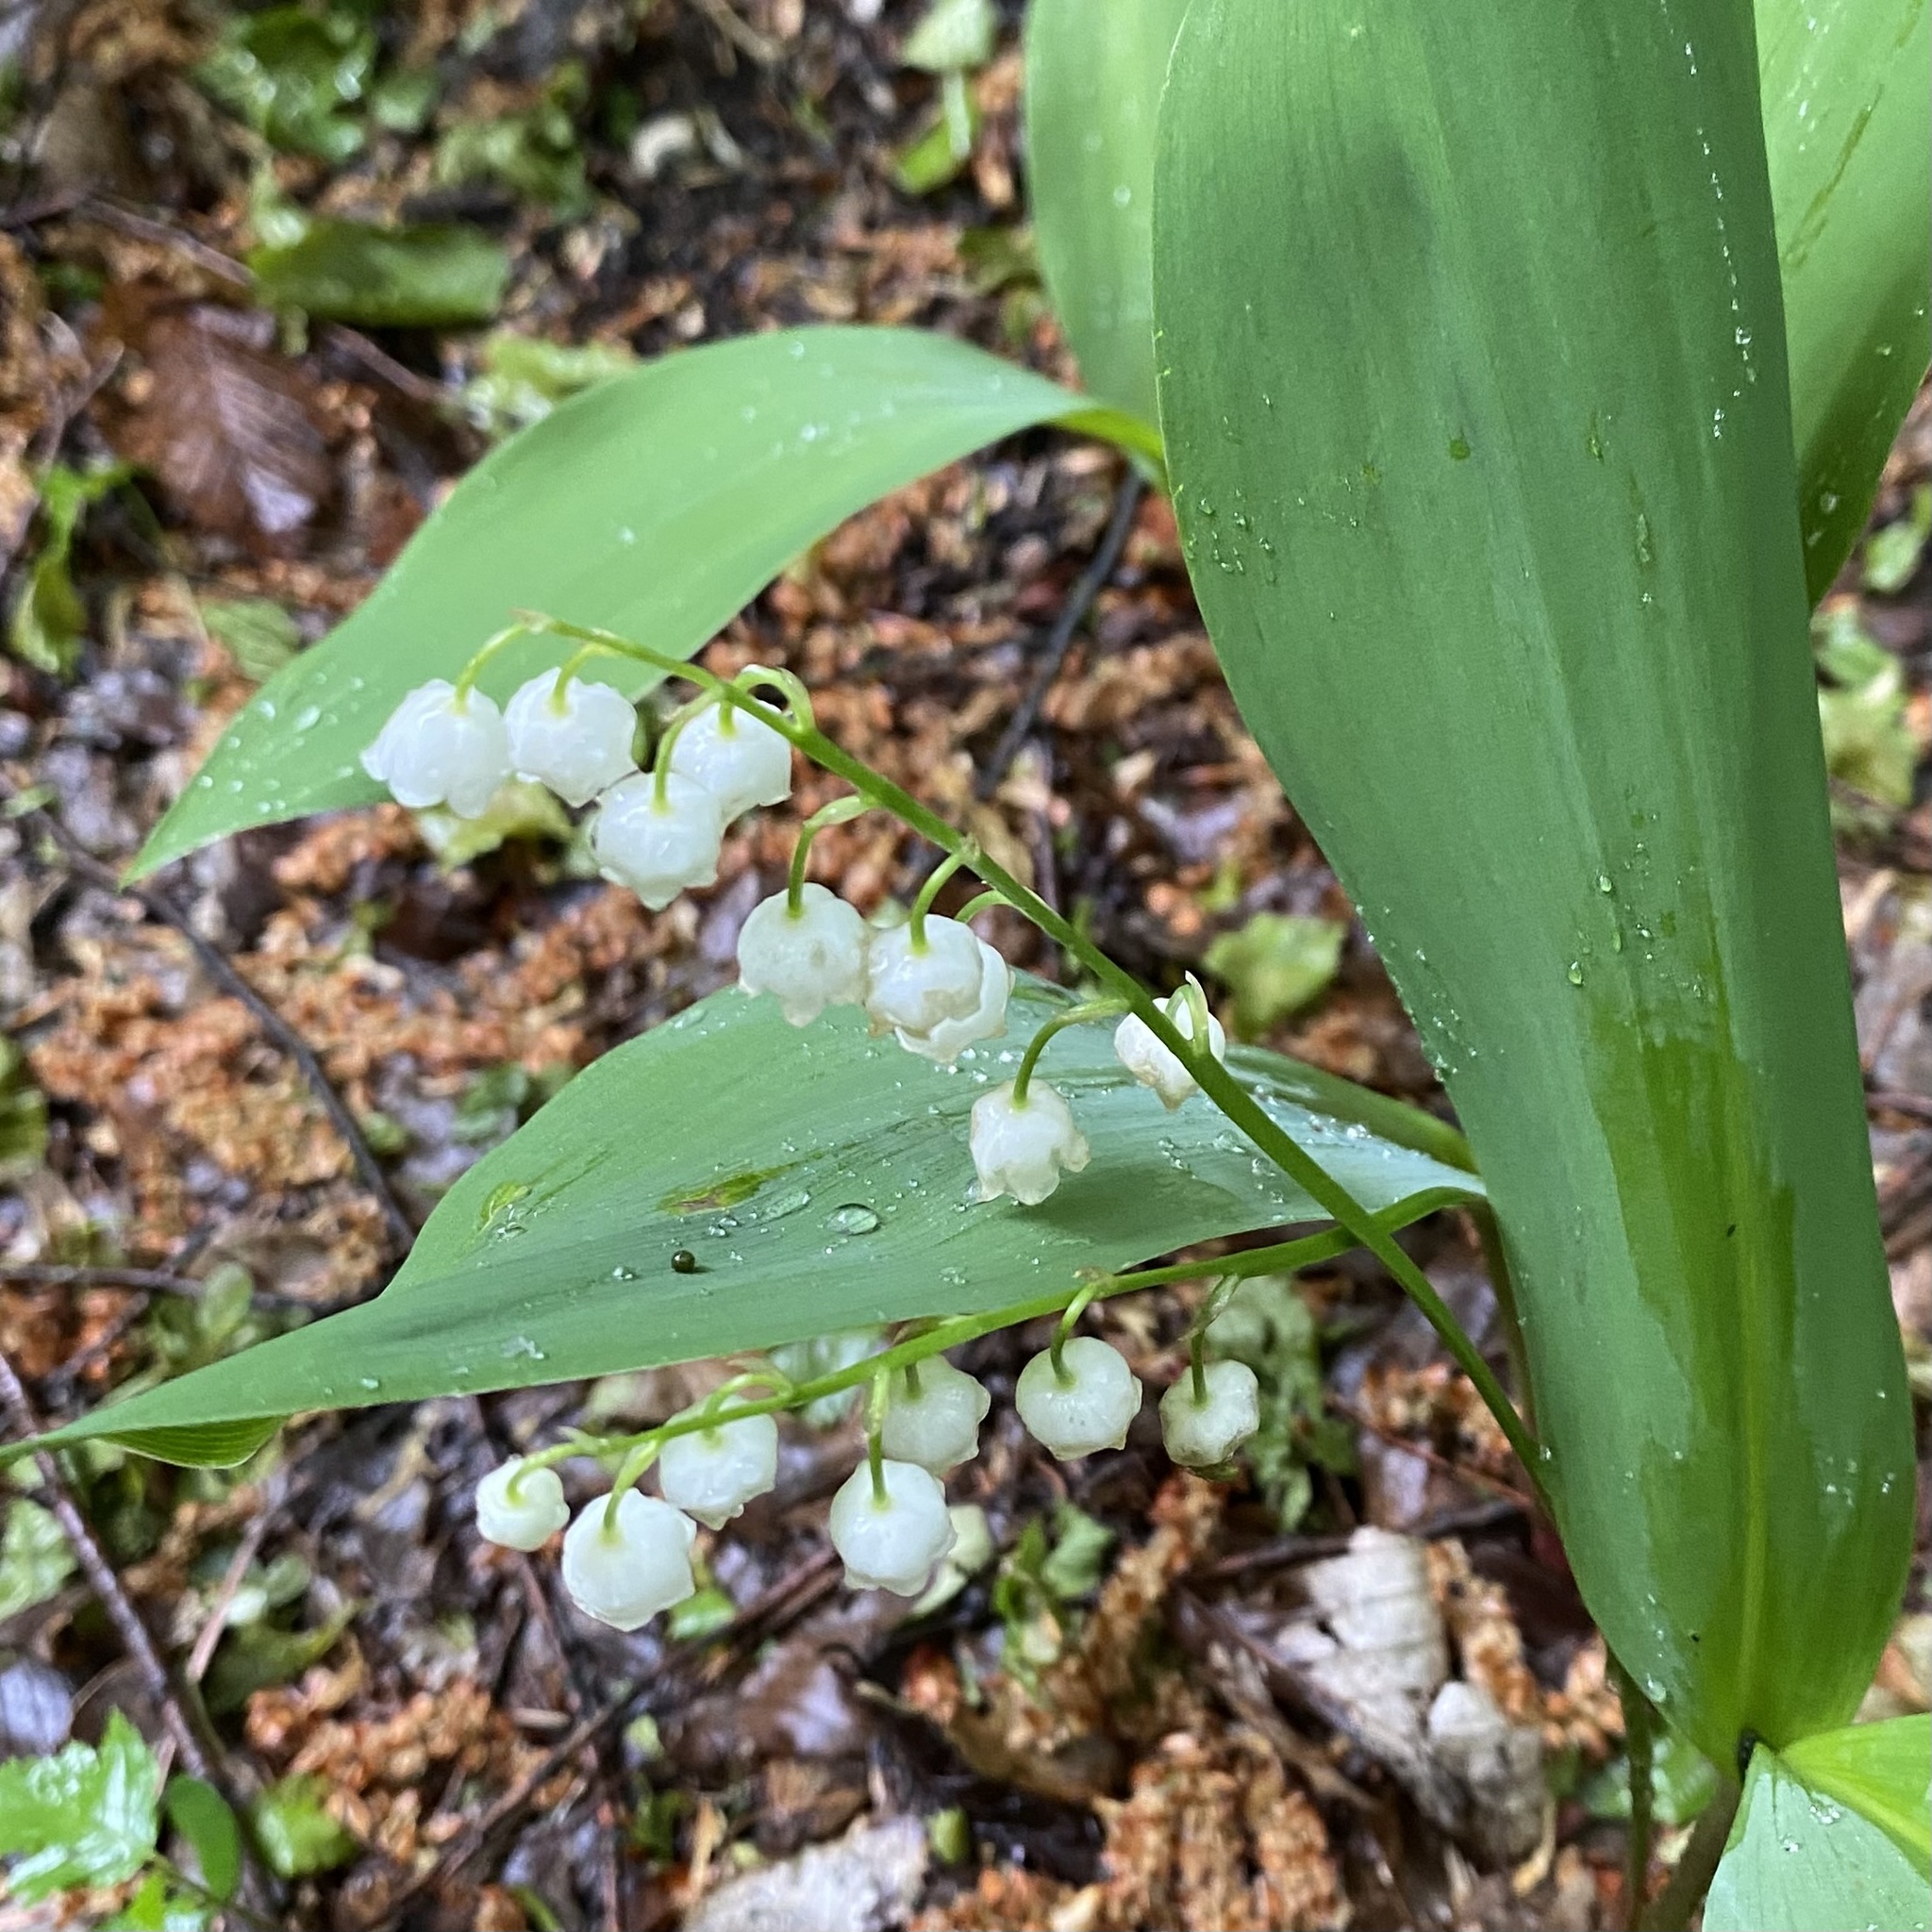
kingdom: Plantae
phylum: Tracheophyta
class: Liliopsida
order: Asparagales
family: Asparagaceae
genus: Convallaria
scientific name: Convallaria majalis
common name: Lily-of-the-valley
